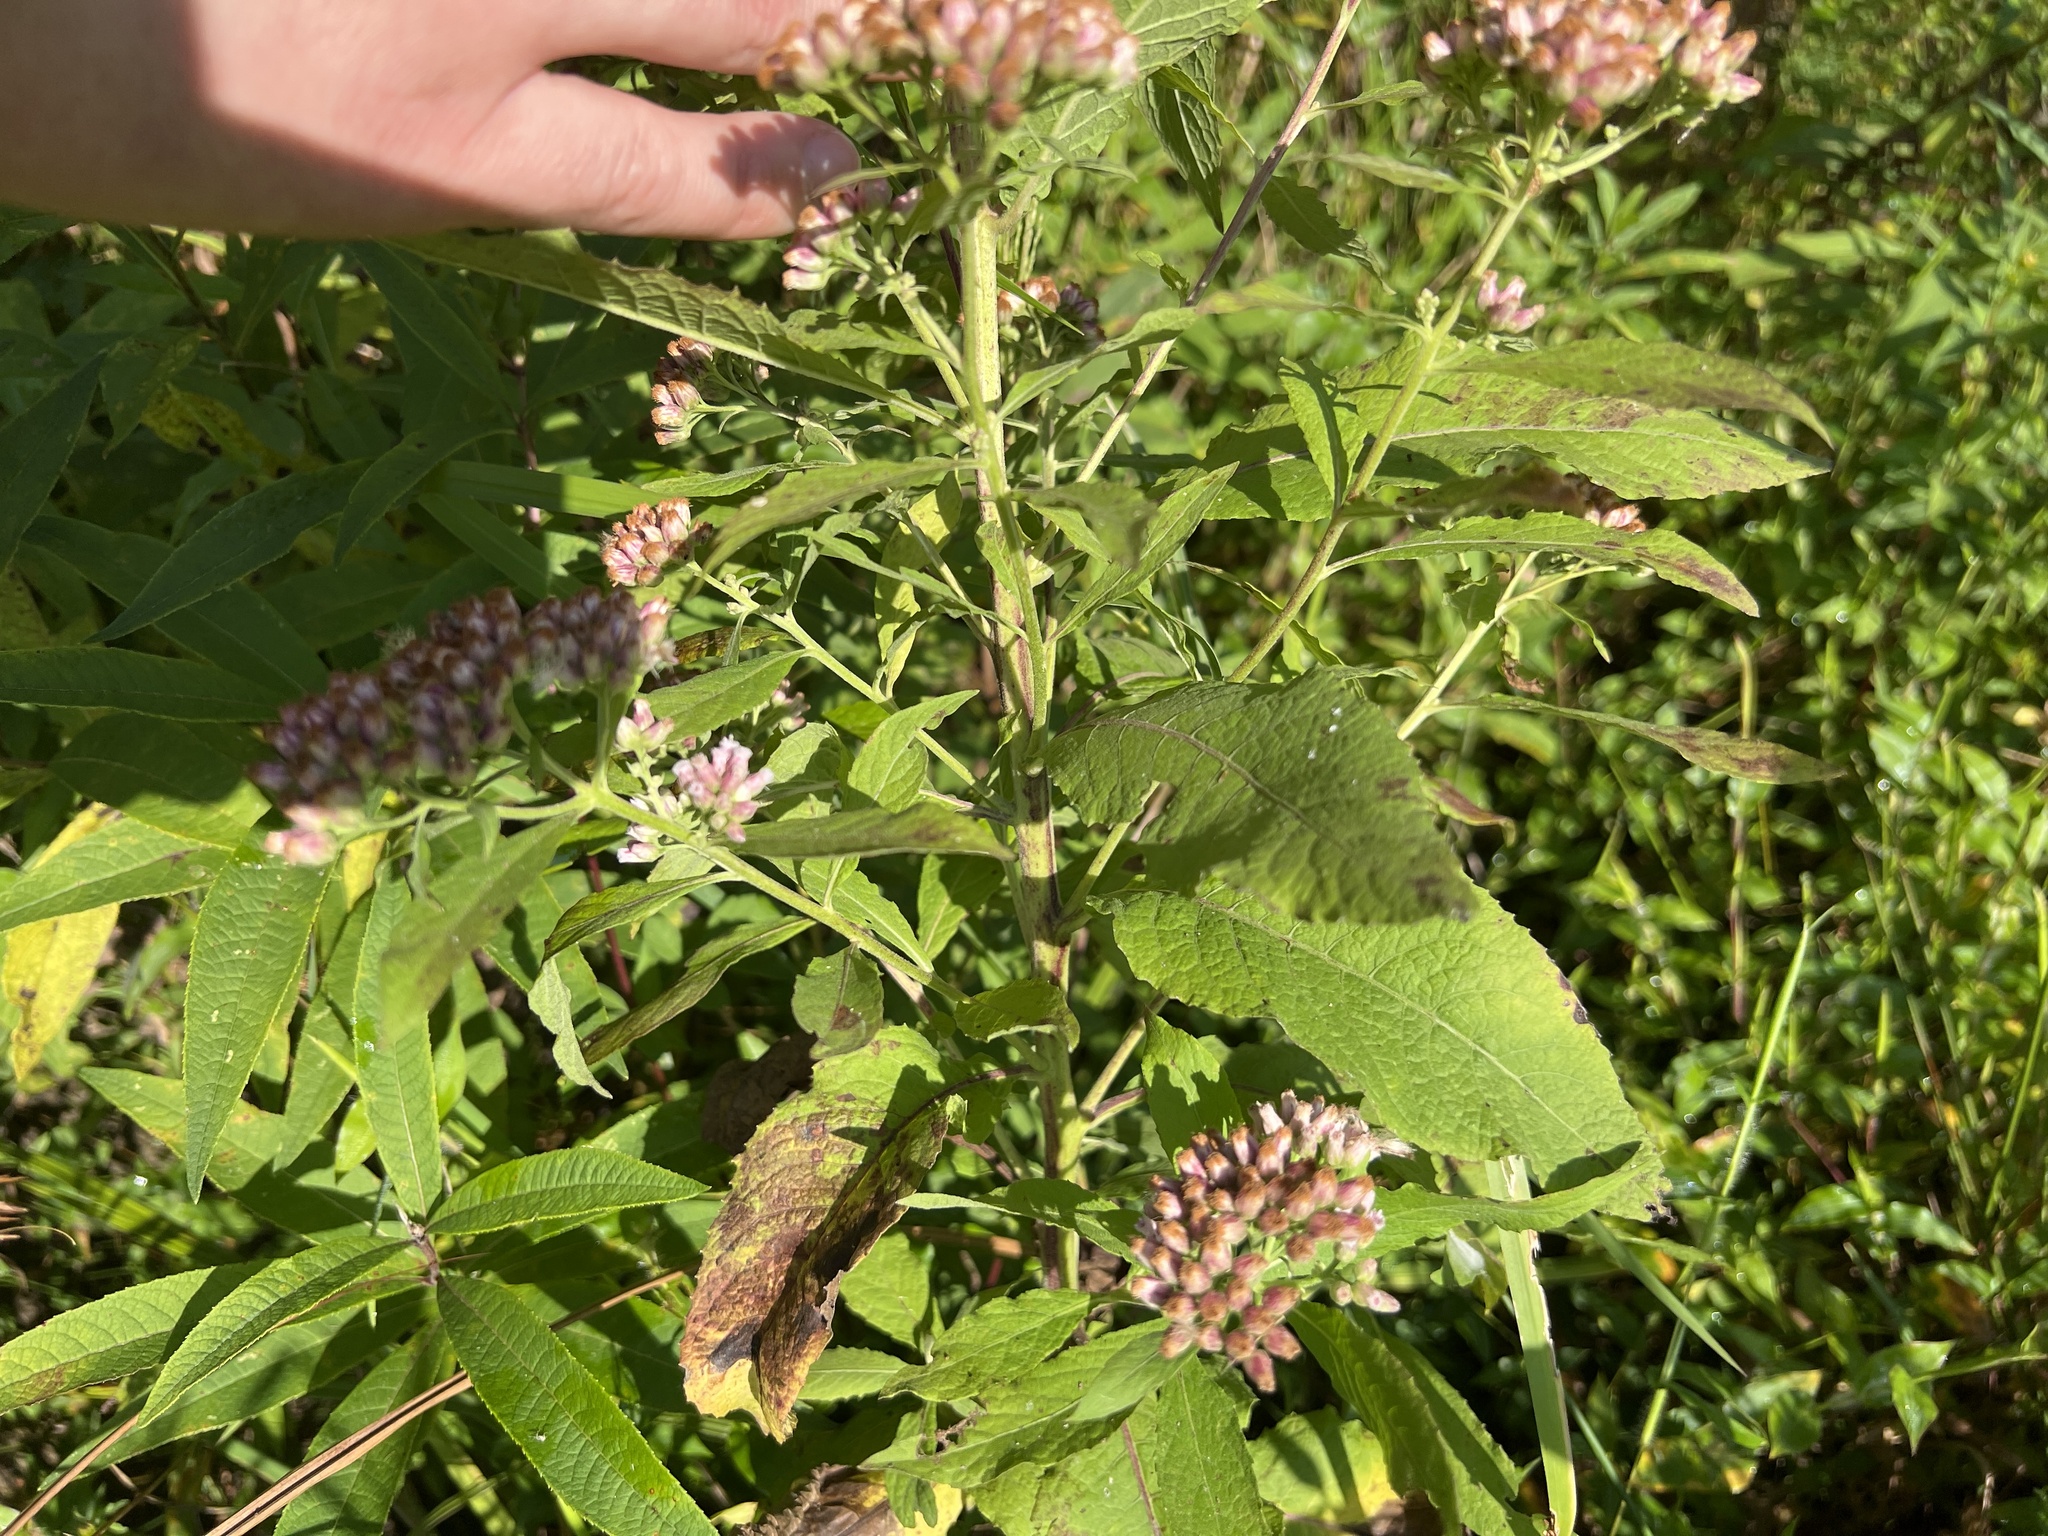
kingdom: Plantae
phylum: Tracheophyta
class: Magnoliopsida
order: Asterales
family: Asteraceae
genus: Pluchea
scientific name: Pluchea camphorata
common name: Camphor pluchea
